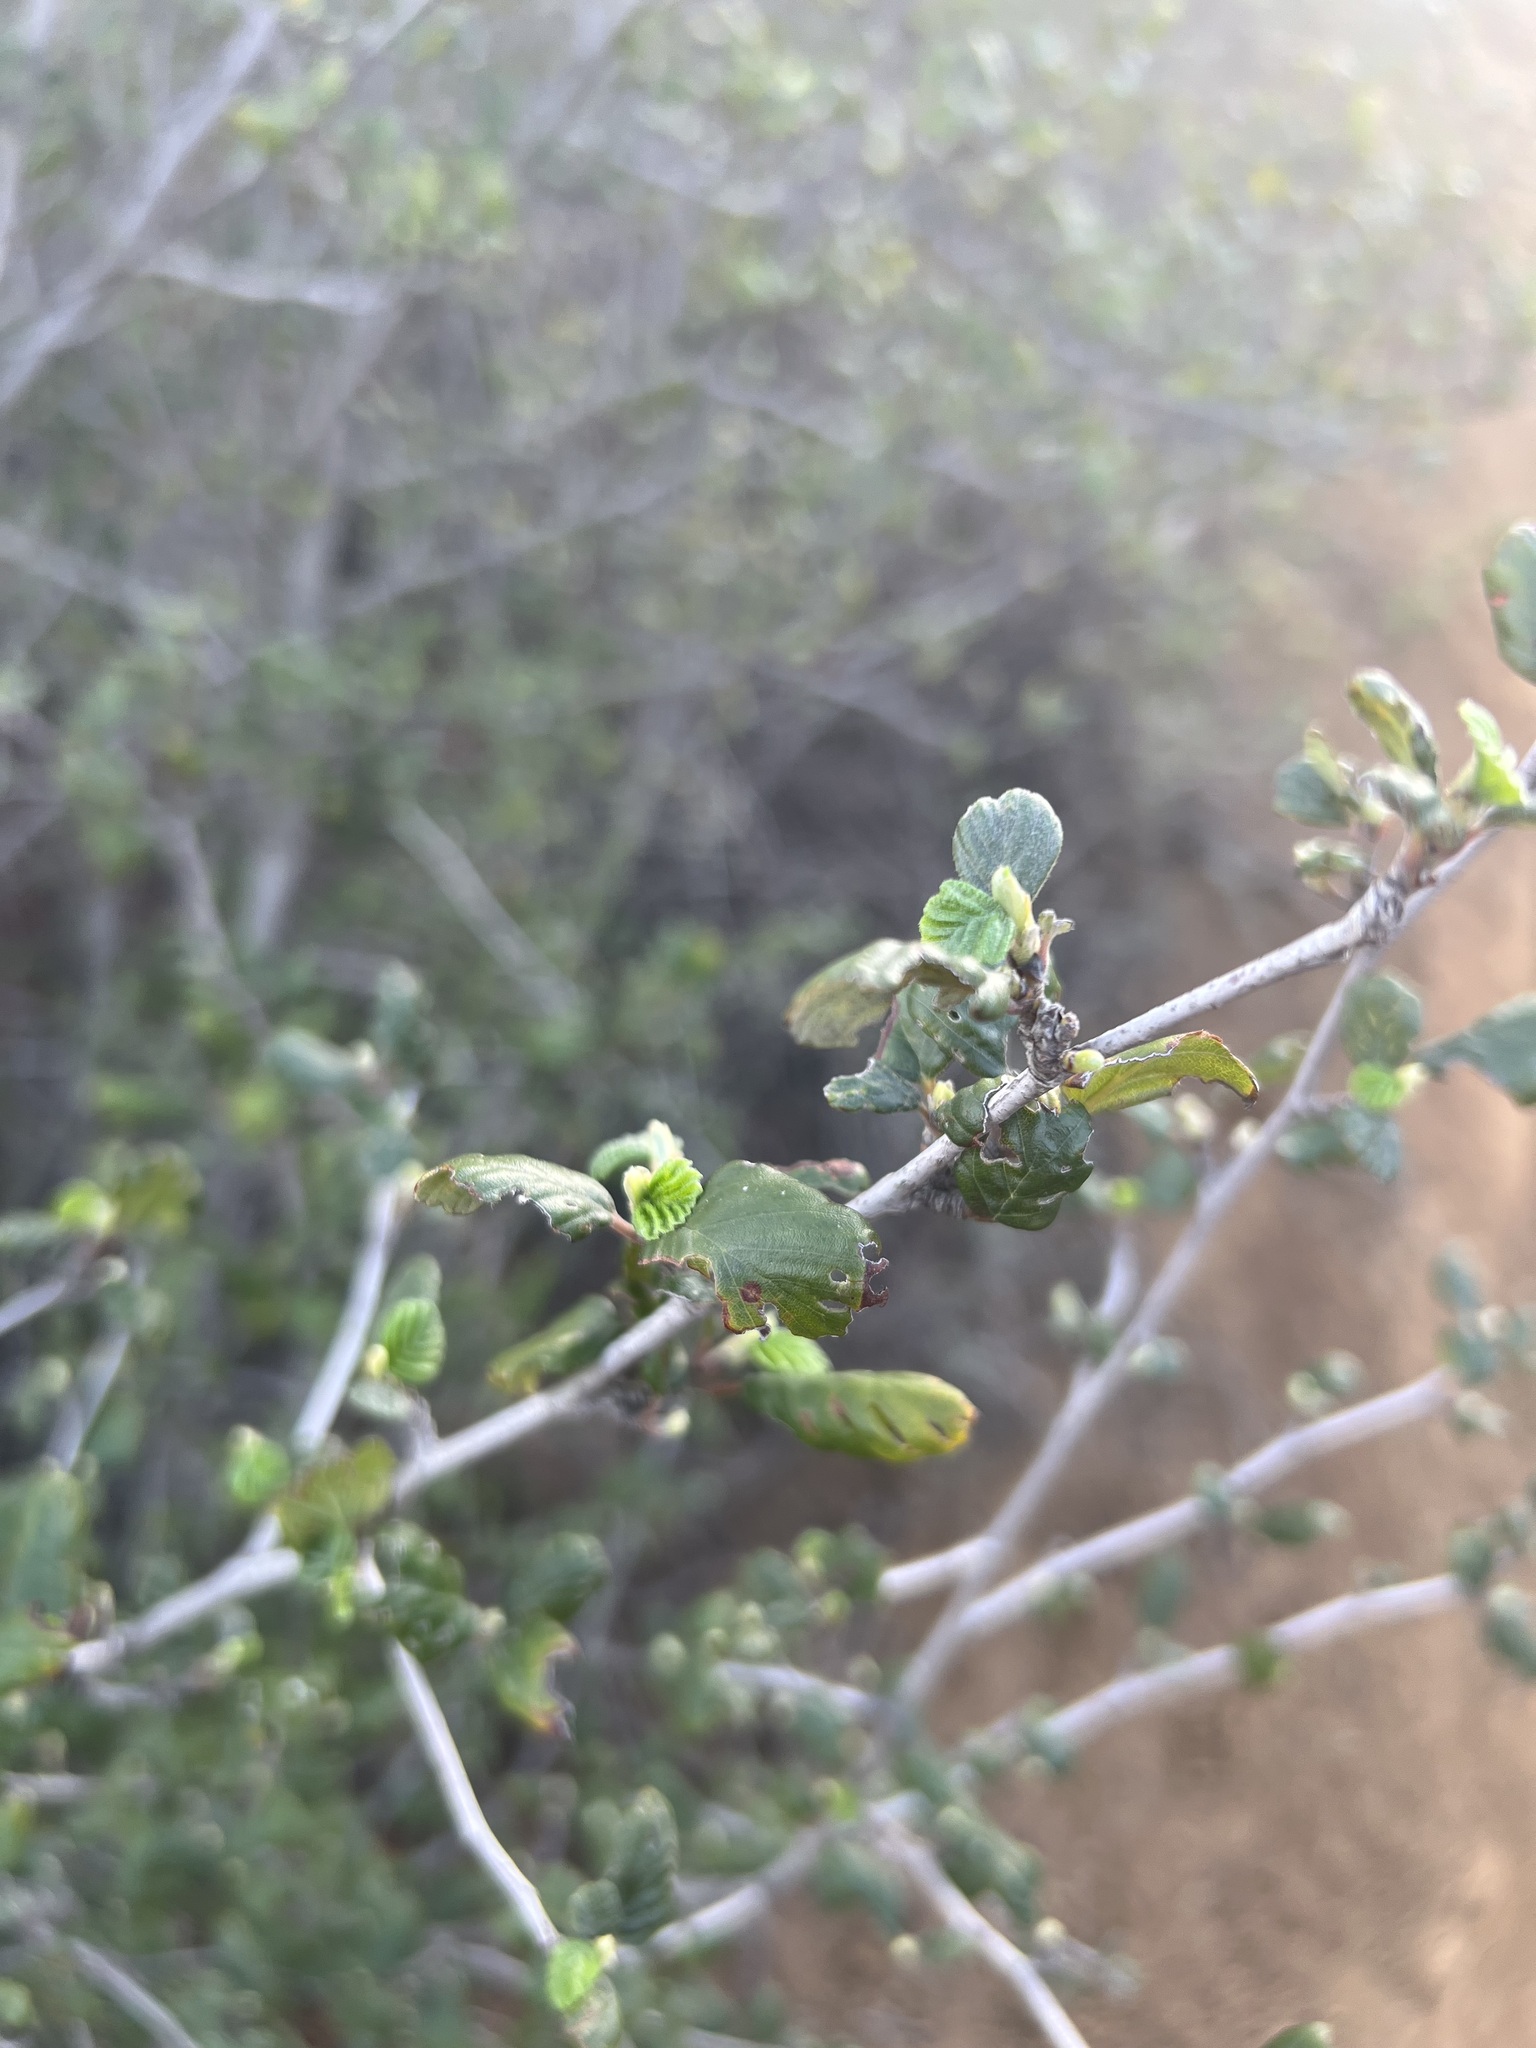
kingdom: Plantae
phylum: Tracheophyta
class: Magnoliopsida
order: Rosales
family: Rosaceae
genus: Cercocarpus
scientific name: Cercocarpus betuloides
